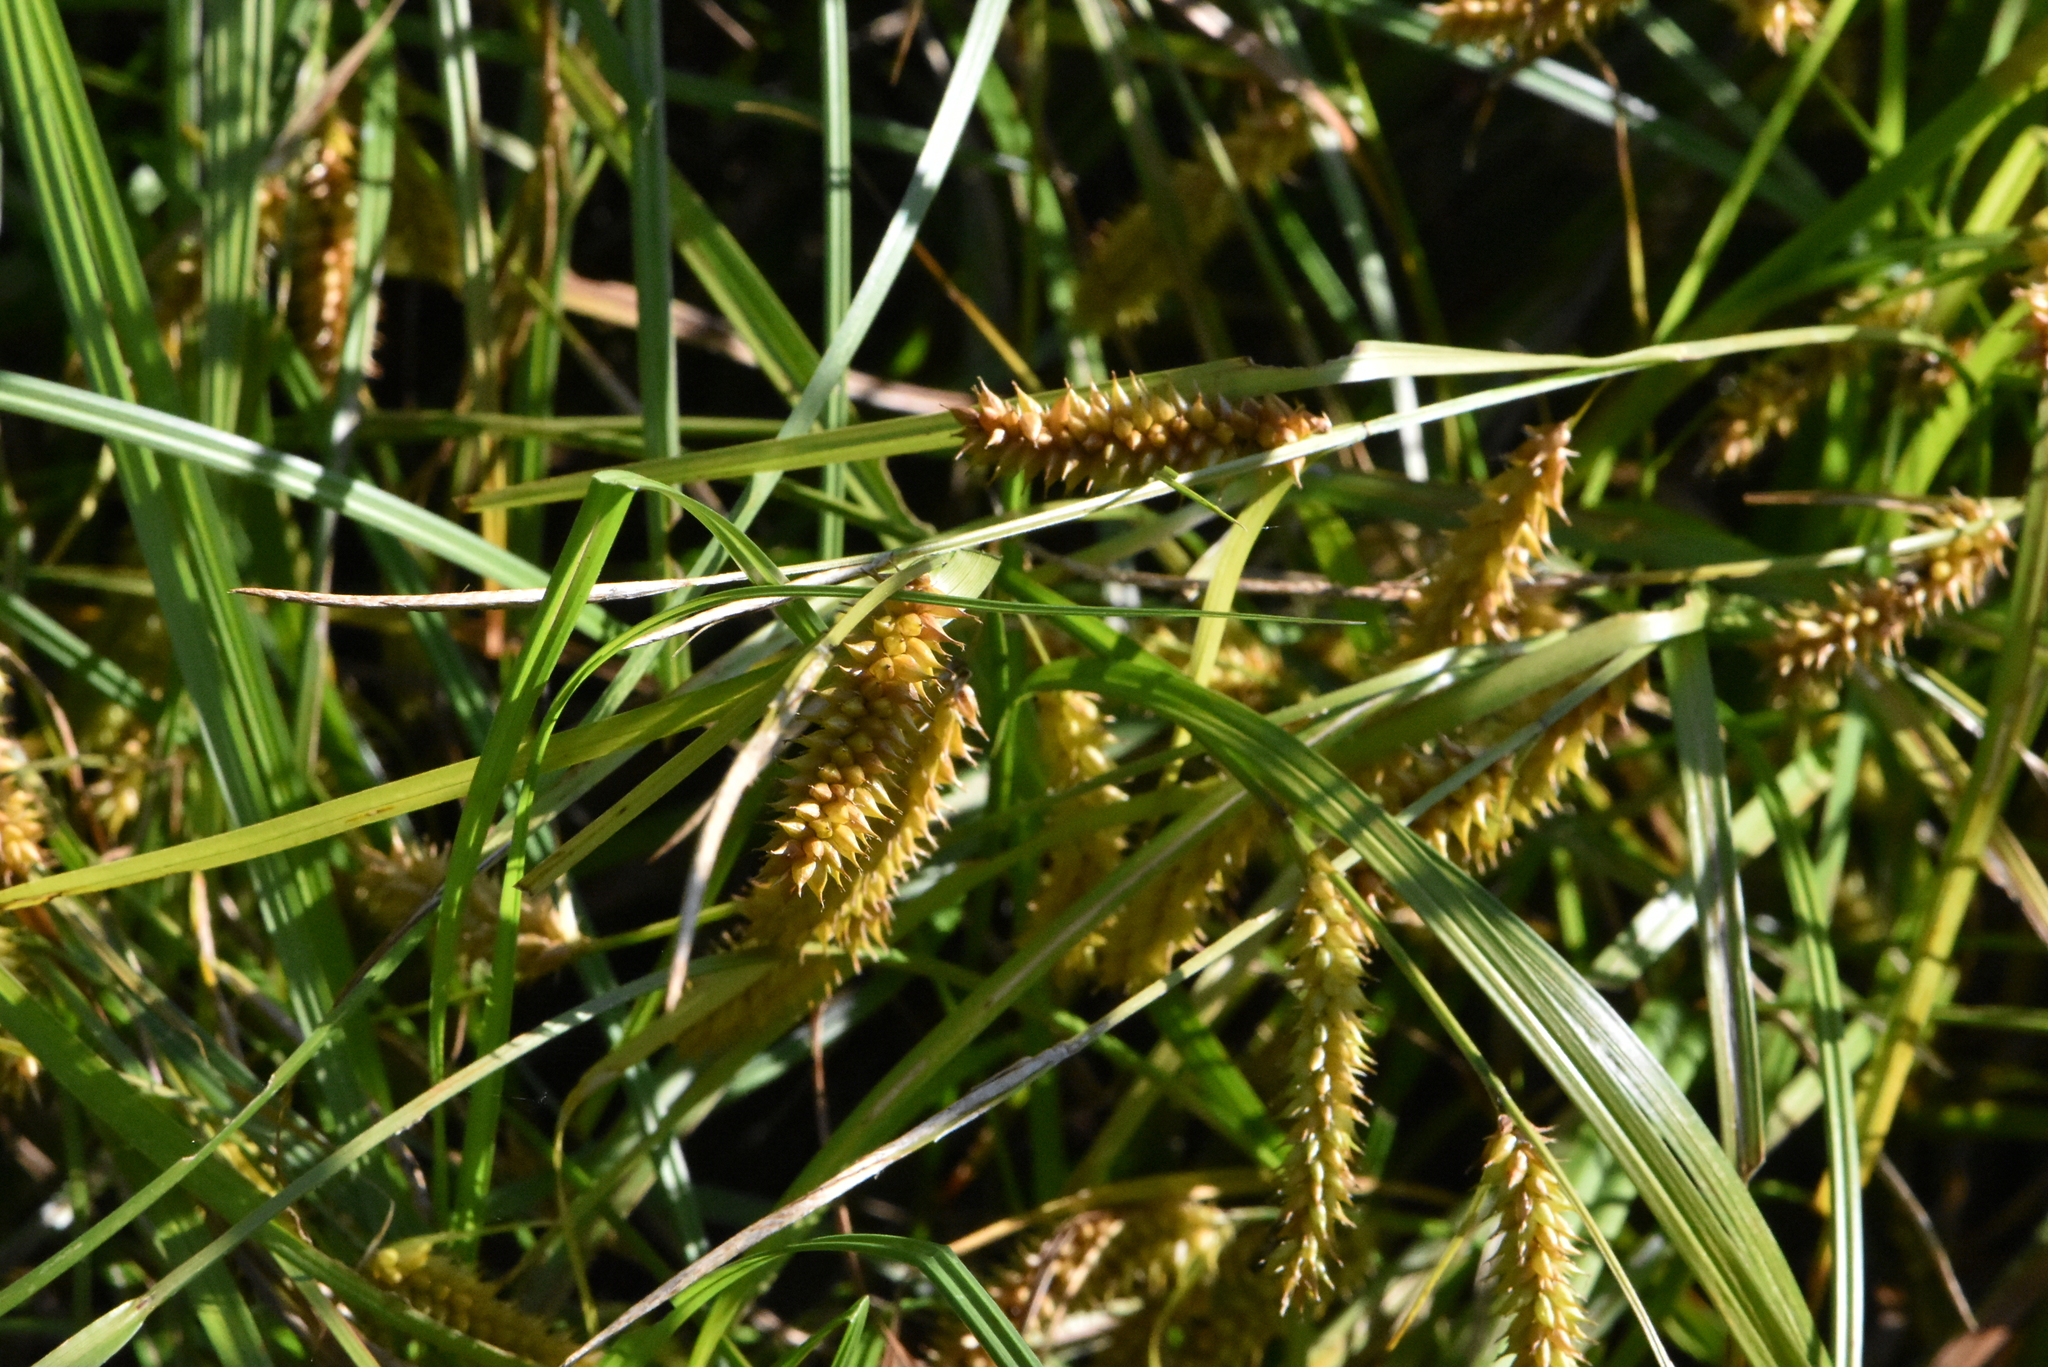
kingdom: Plantae
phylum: Tracheophyta
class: Liliopsida
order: Poales
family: Cyperaceae
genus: Carex
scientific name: Carex vesicaria
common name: Bladder-sedge
